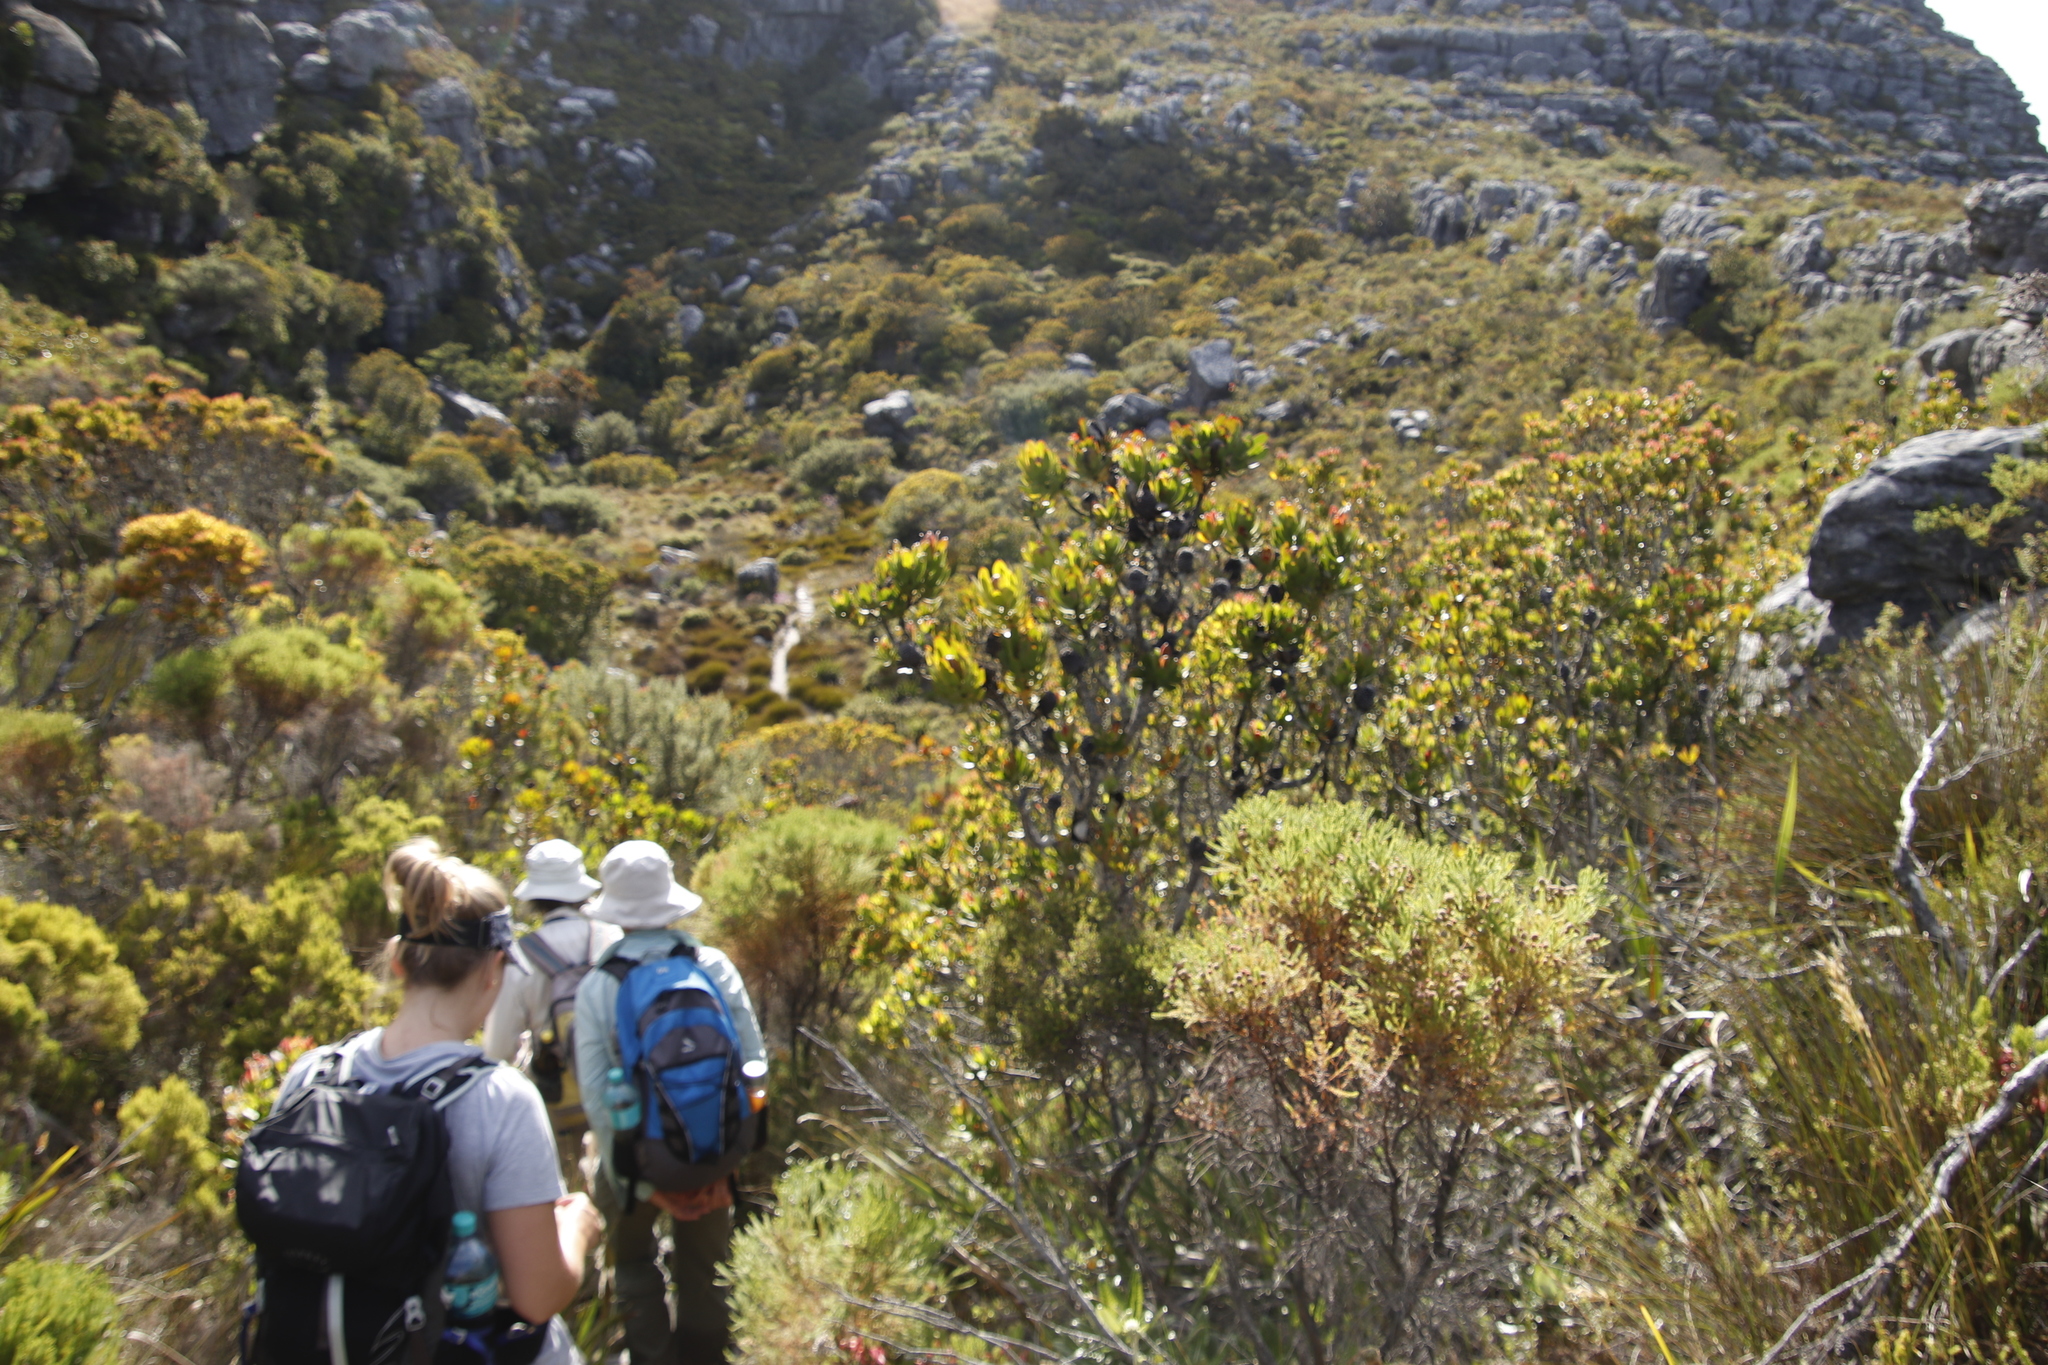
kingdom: Plantae
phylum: Tracheophyta
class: Magnoliopsida
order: Proteales
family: Proteaceae
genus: Leucadendron
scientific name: Leucadendron strobilinum
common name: Mountain rose
